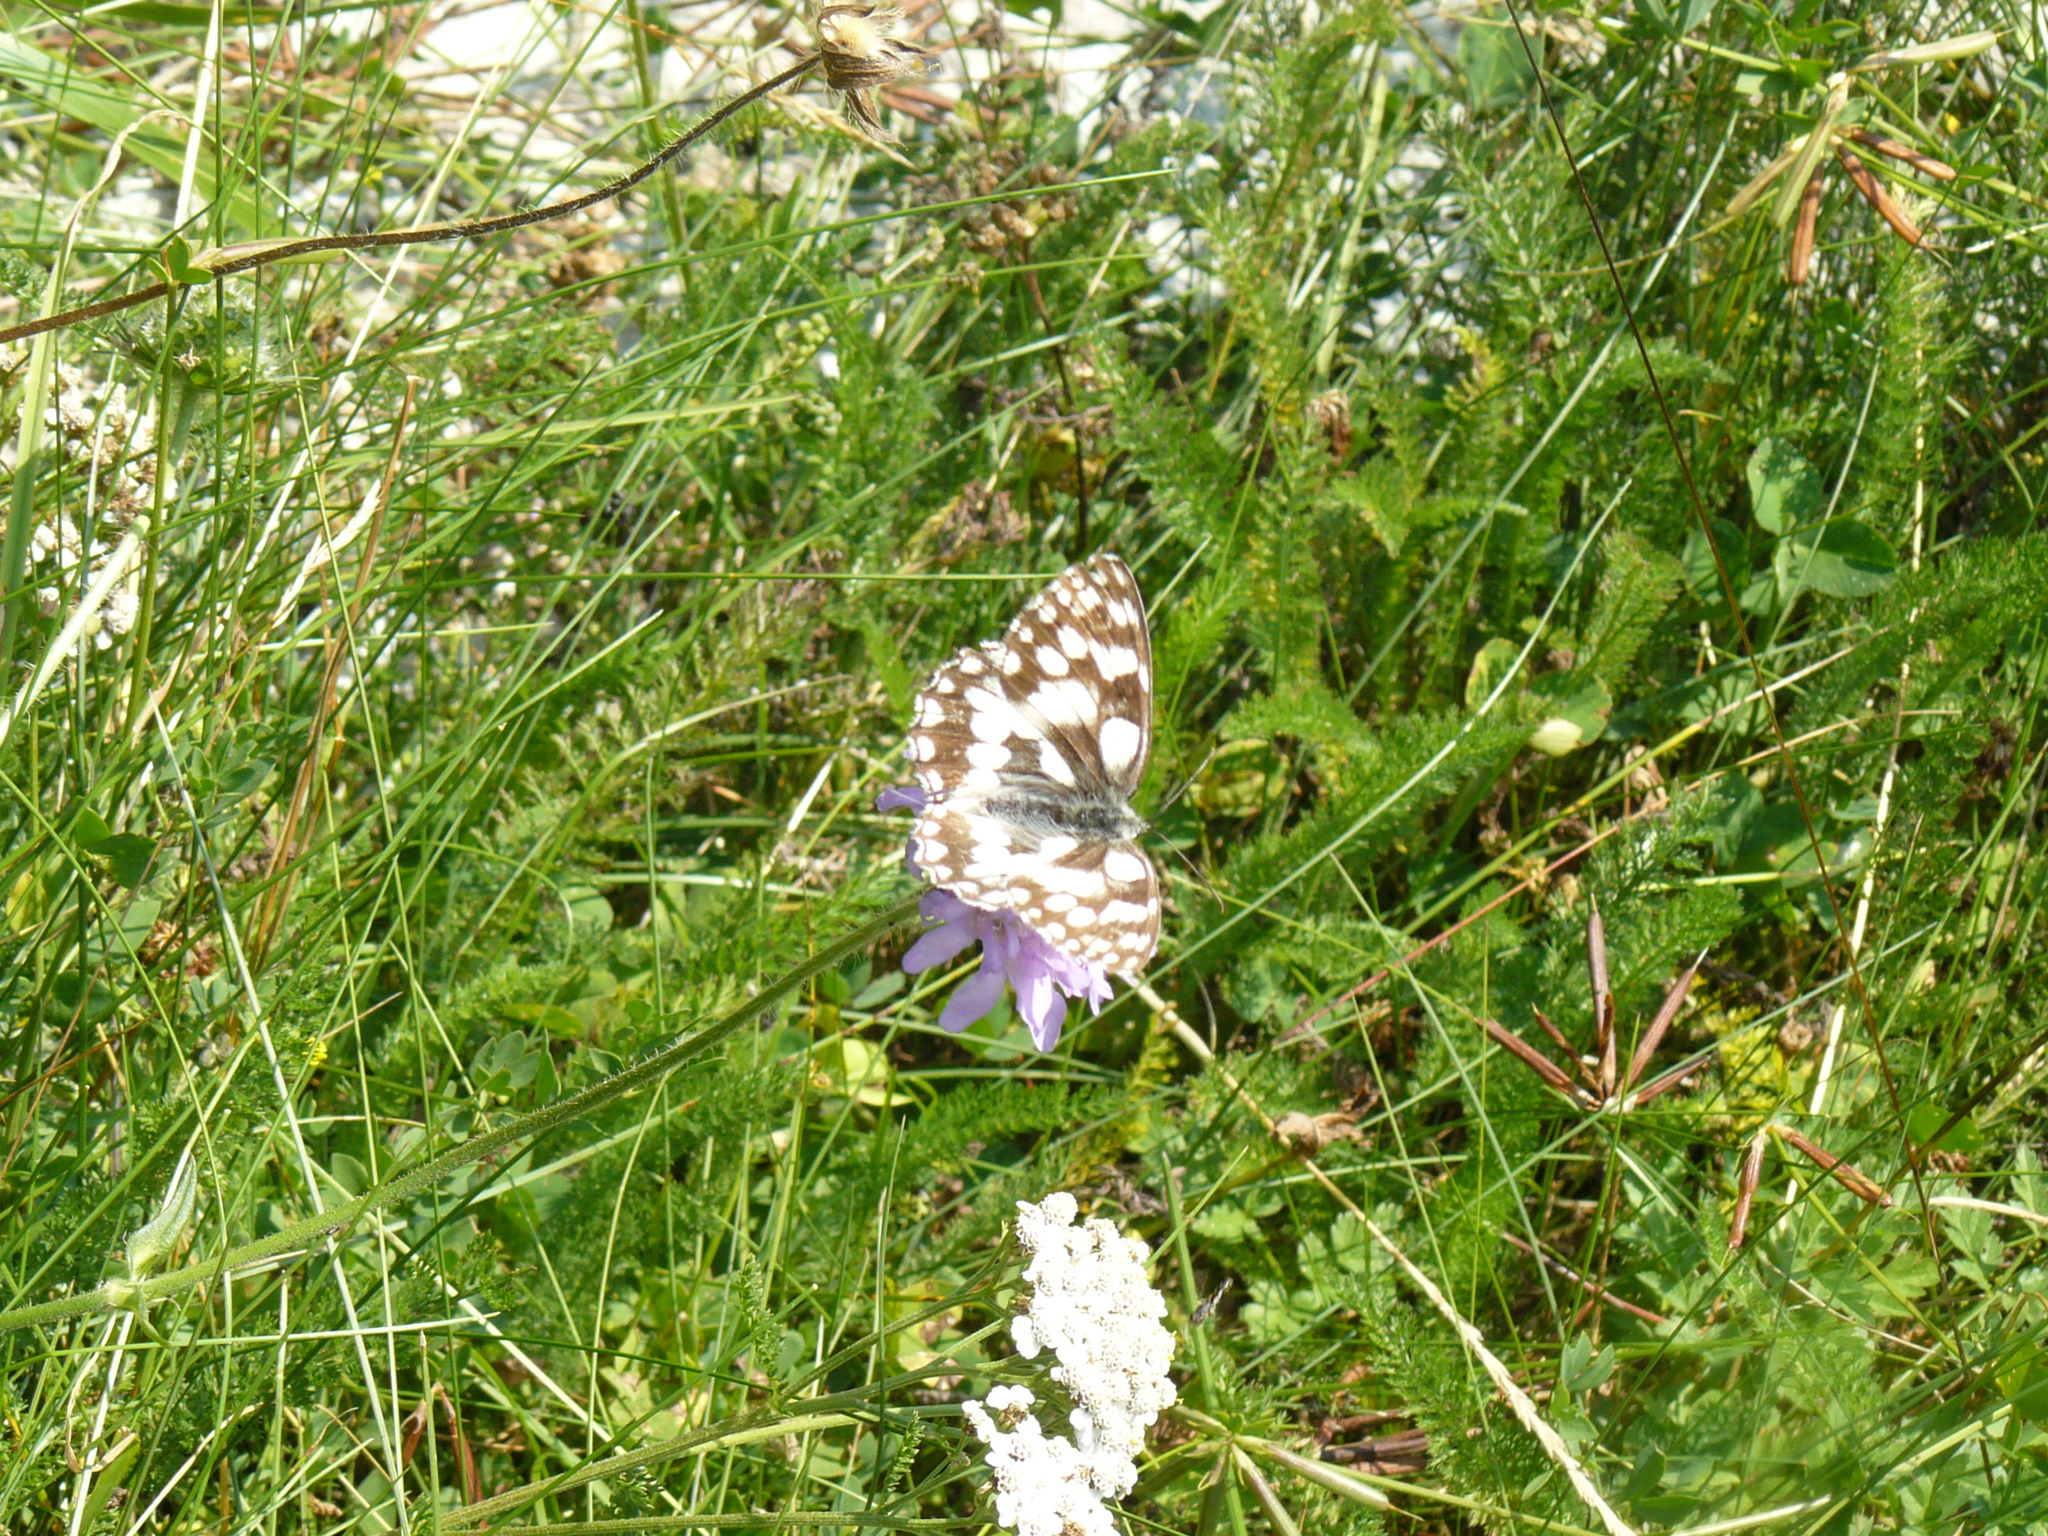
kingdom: Animalia
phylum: Arthropoda
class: Insecta
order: Lepidoptera
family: Nymphalidae
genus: Melanargia
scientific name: Melanargia galathea
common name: Marbled white
